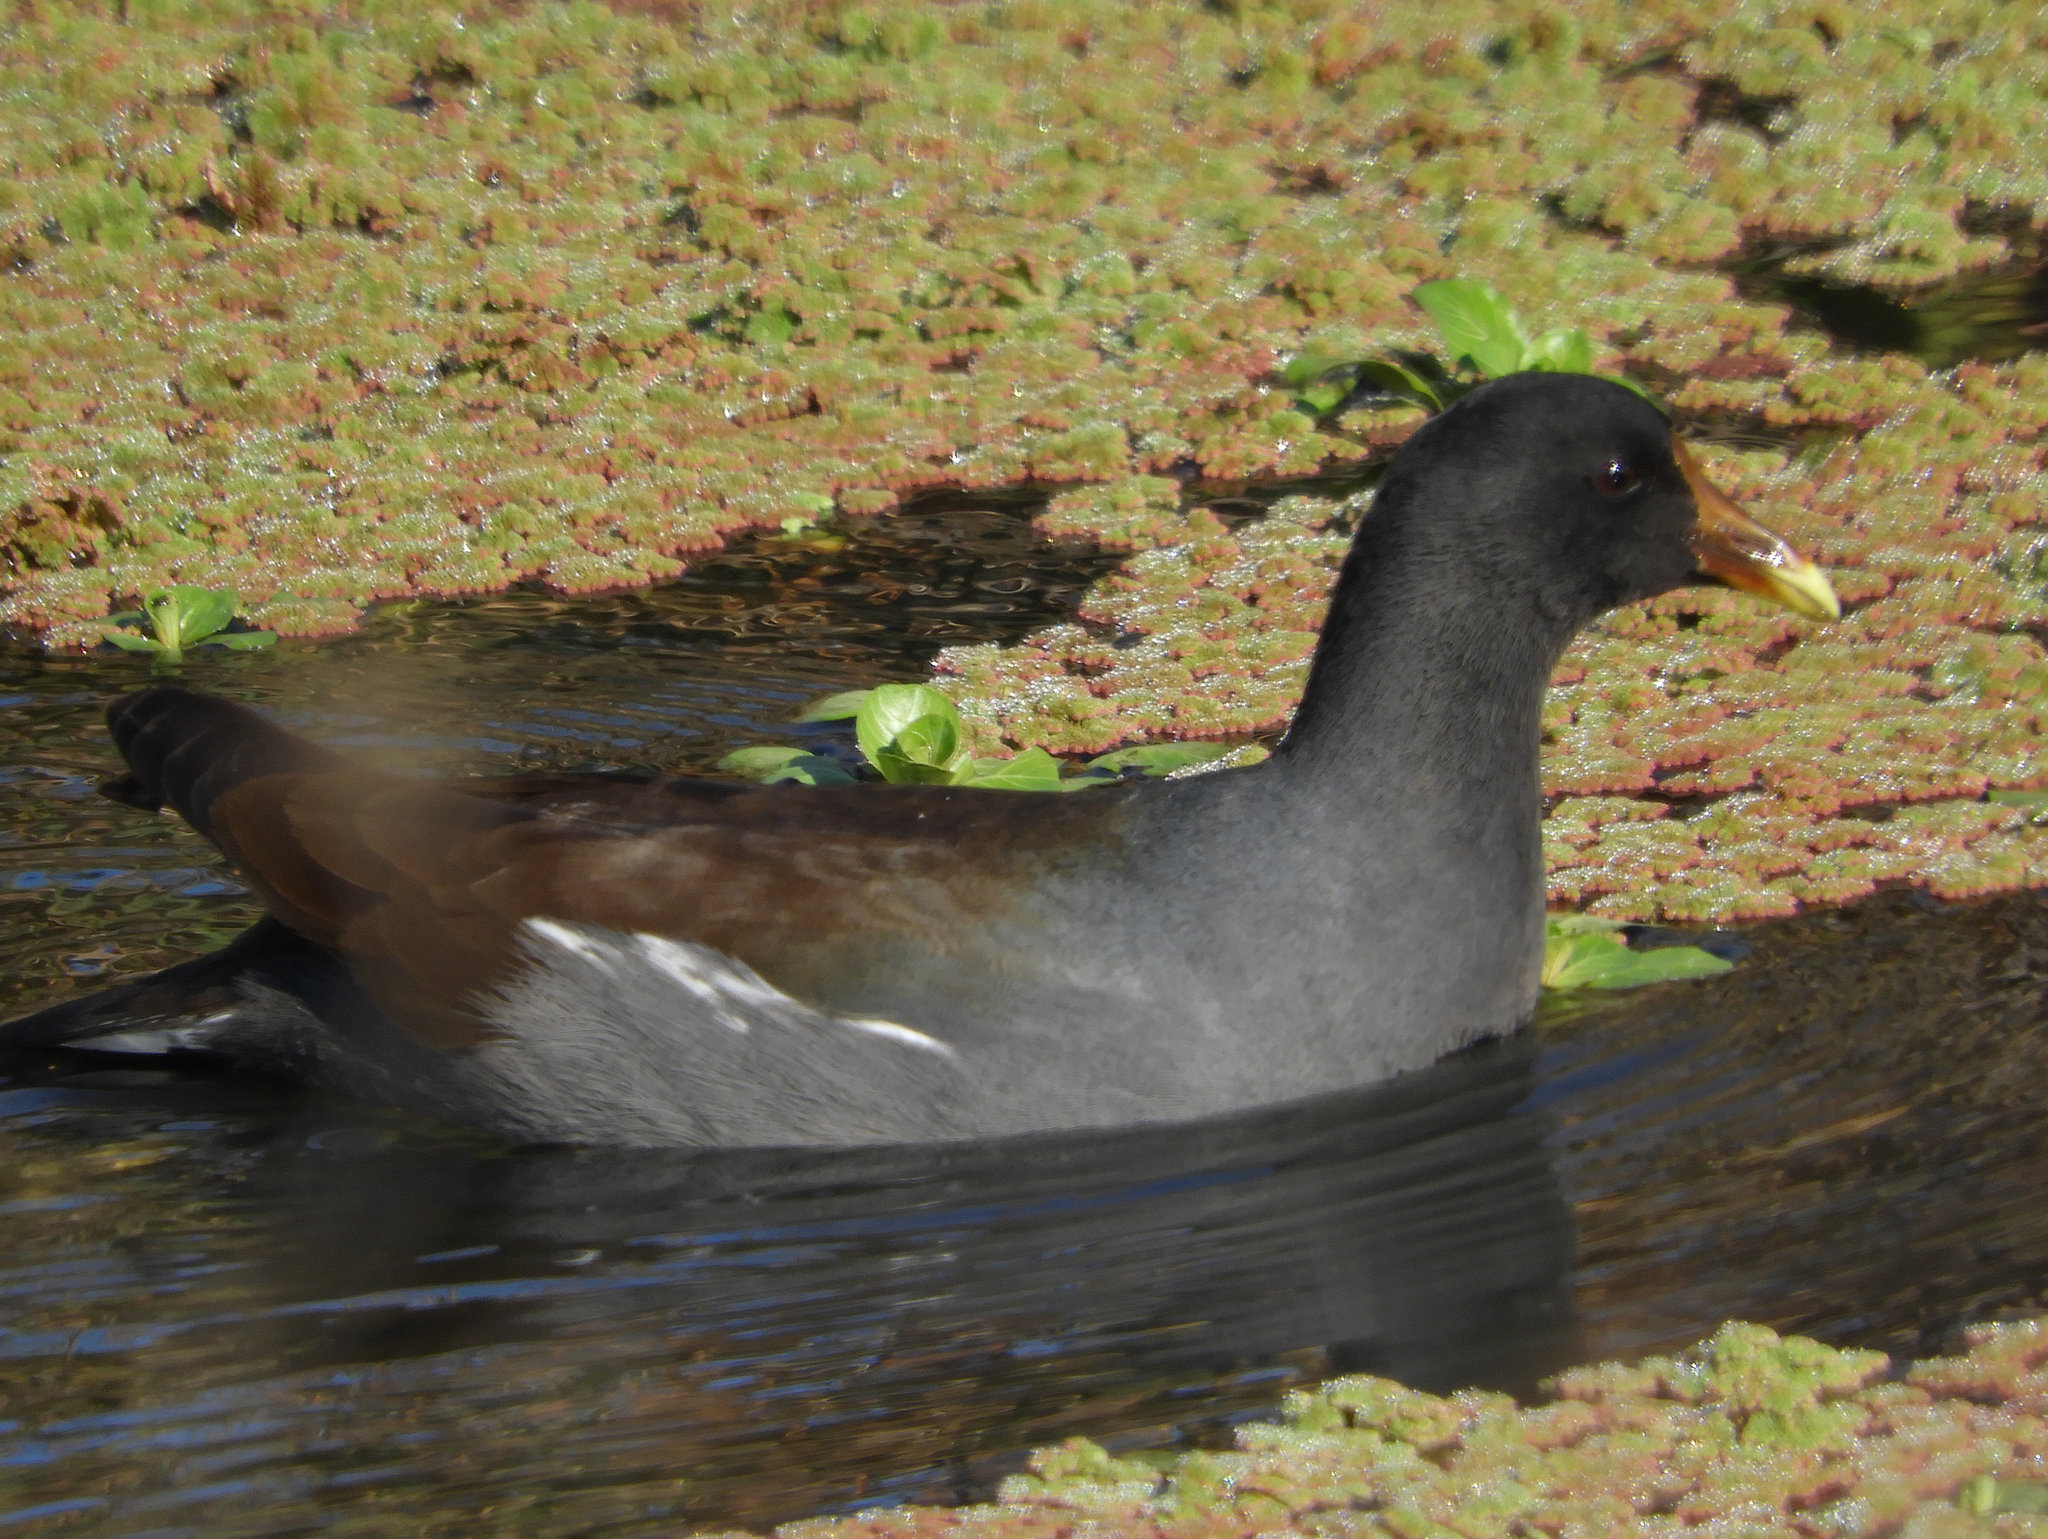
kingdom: Animalia
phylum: Chordata
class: Aves
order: Gruiformes
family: Rallidae
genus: Gallinula
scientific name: Gallinula chloropus
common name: Common moorhen
